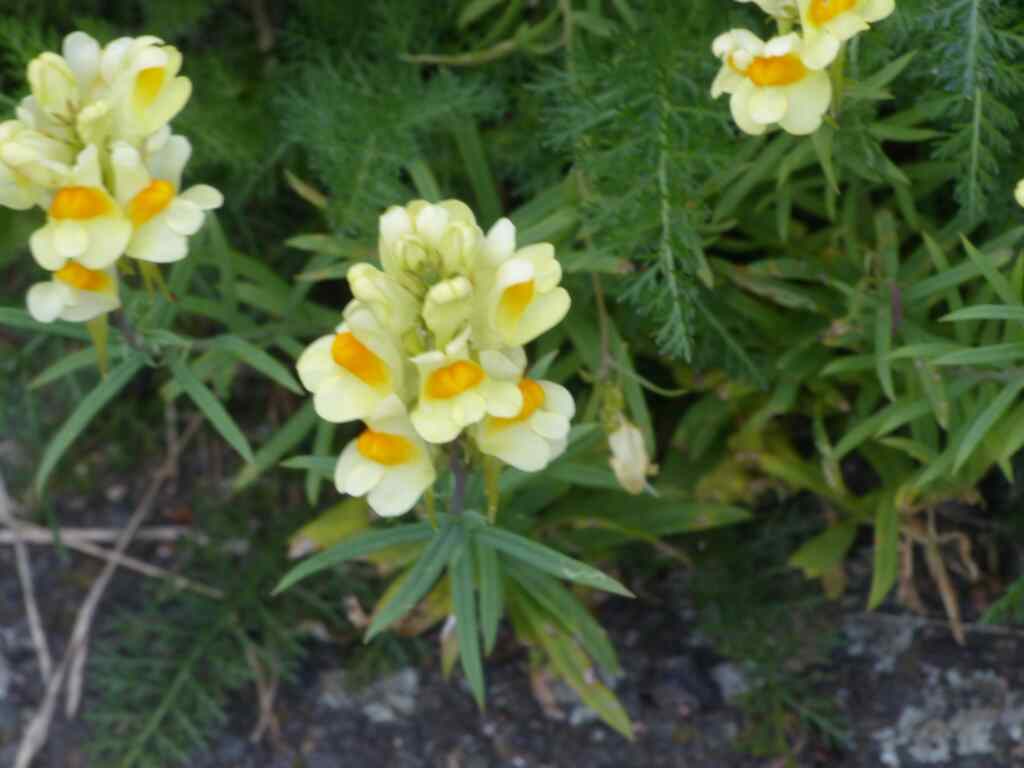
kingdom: Plantae
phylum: Tracheophyta
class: Magnoliopsida
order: Lamiales
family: Plantaginaceae
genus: Linaria
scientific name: Linaria vulgaris
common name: Butter and eggs
